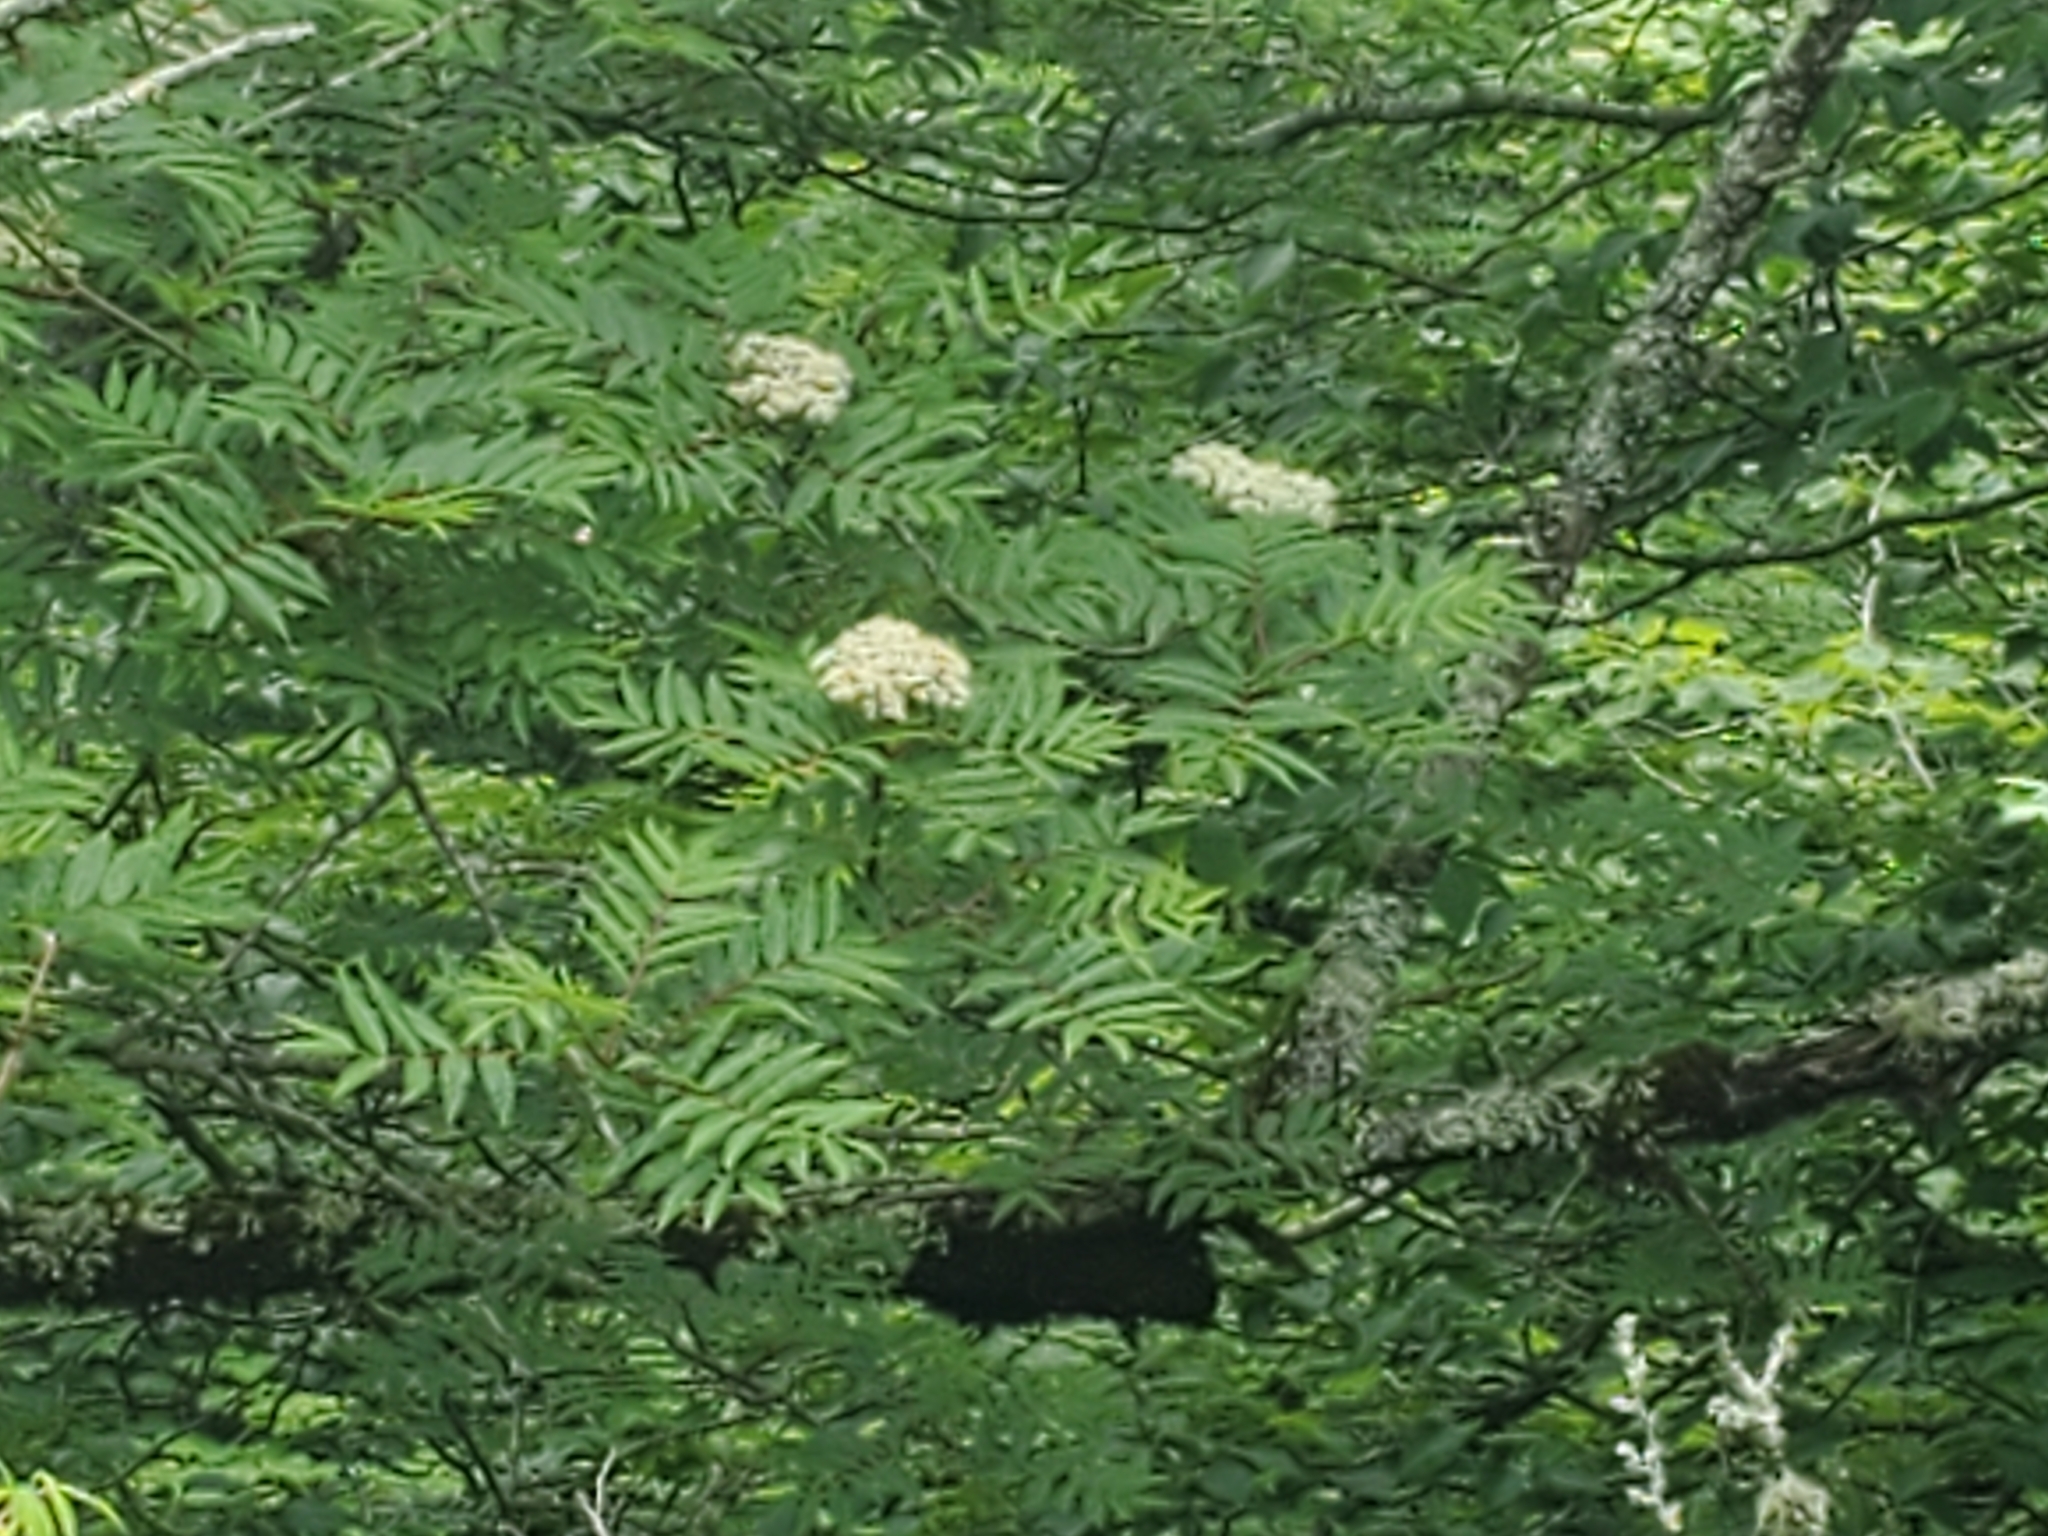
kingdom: Plantae
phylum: Tracheophyta
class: Magnoliopsida
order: Rosales
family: Rosaceae
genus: Sorbus
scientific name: Sorbus americana
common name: American mountain-ash
